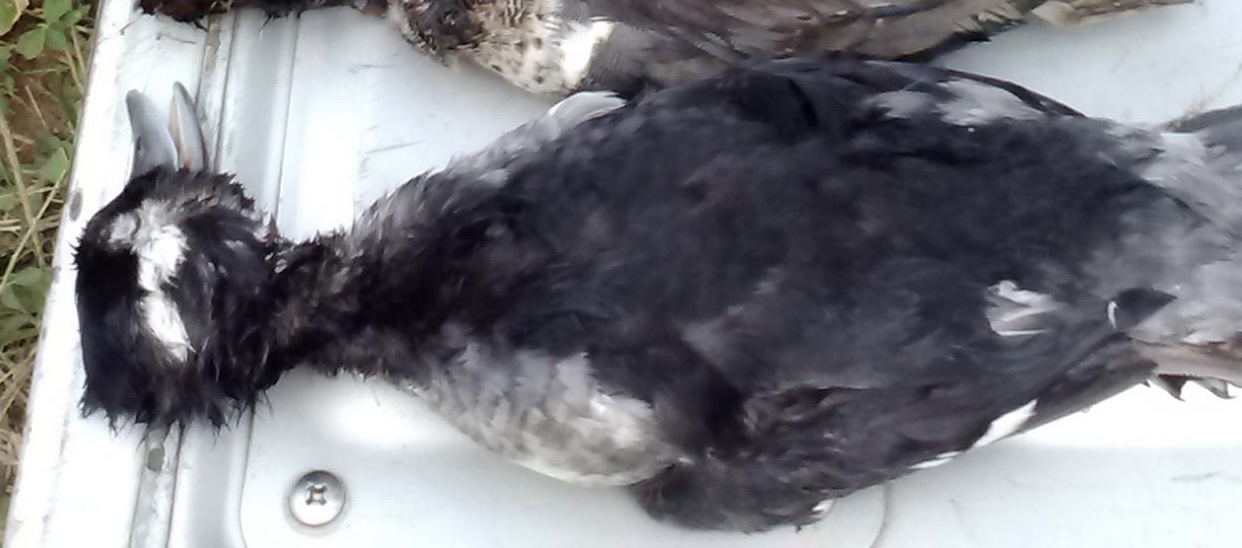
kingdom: Animalia
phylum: Chordata
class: Aves
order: Anseriformes
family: Anatidae
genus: Bucephala
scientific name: Bucephala albeola
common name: Bufflehead
